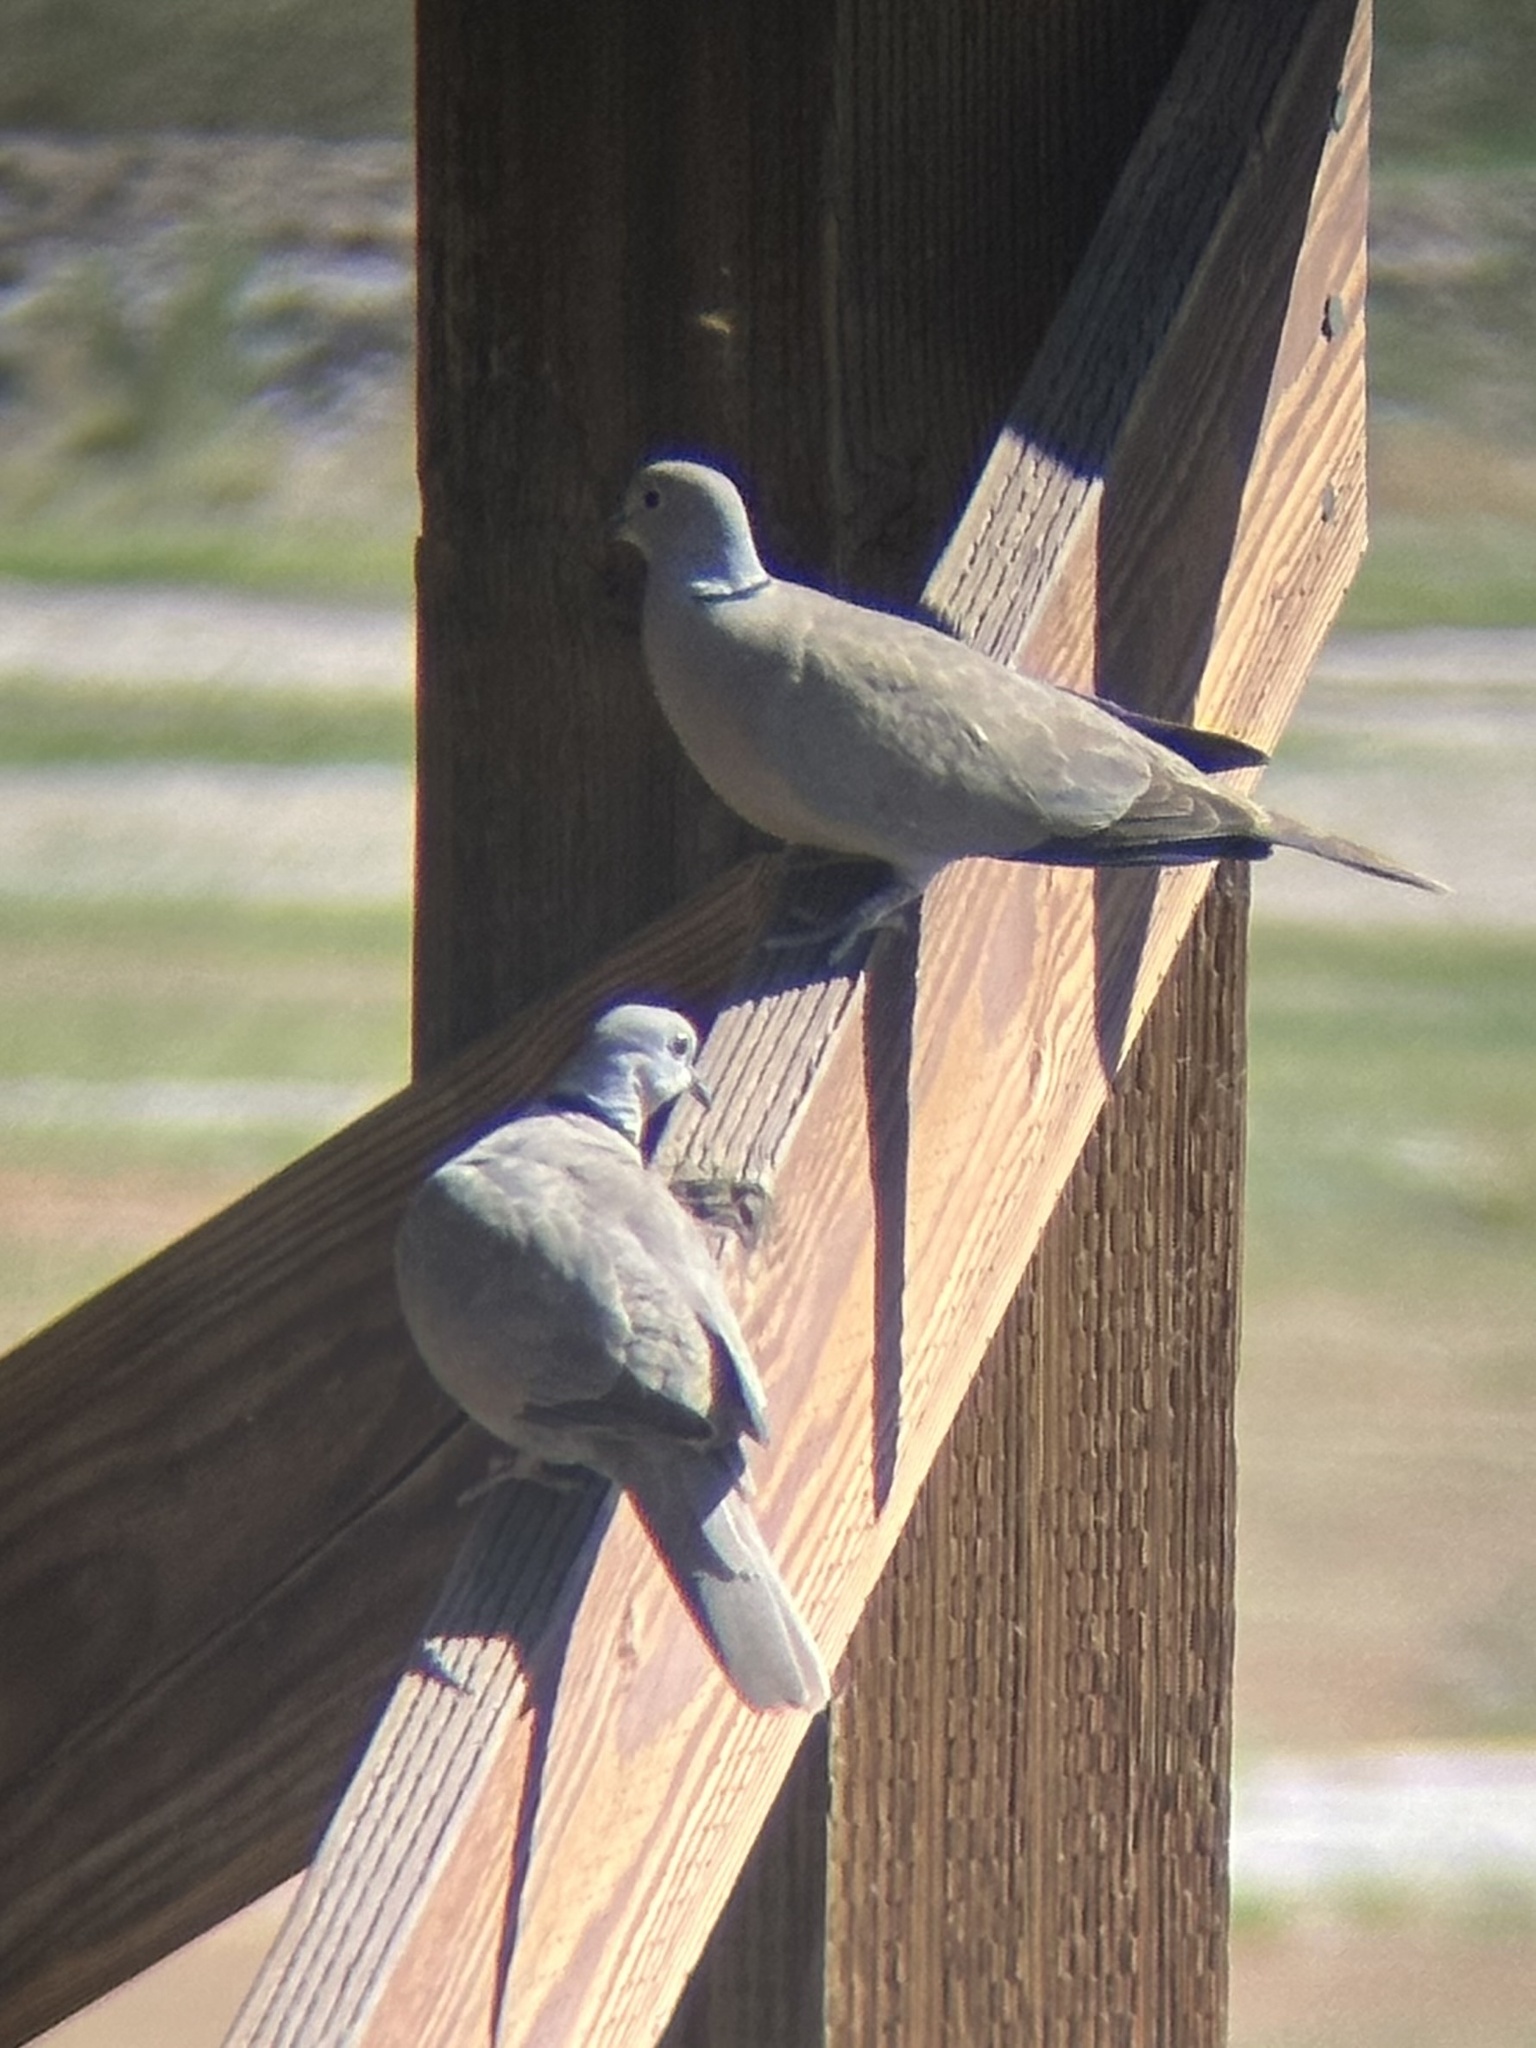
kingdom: Animalia
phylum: Chordata
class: Aves
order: Columbiformes
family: Columbidae
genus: Streptopelia
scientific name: Streptopelia decaocto
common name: Eurasian collared dove
